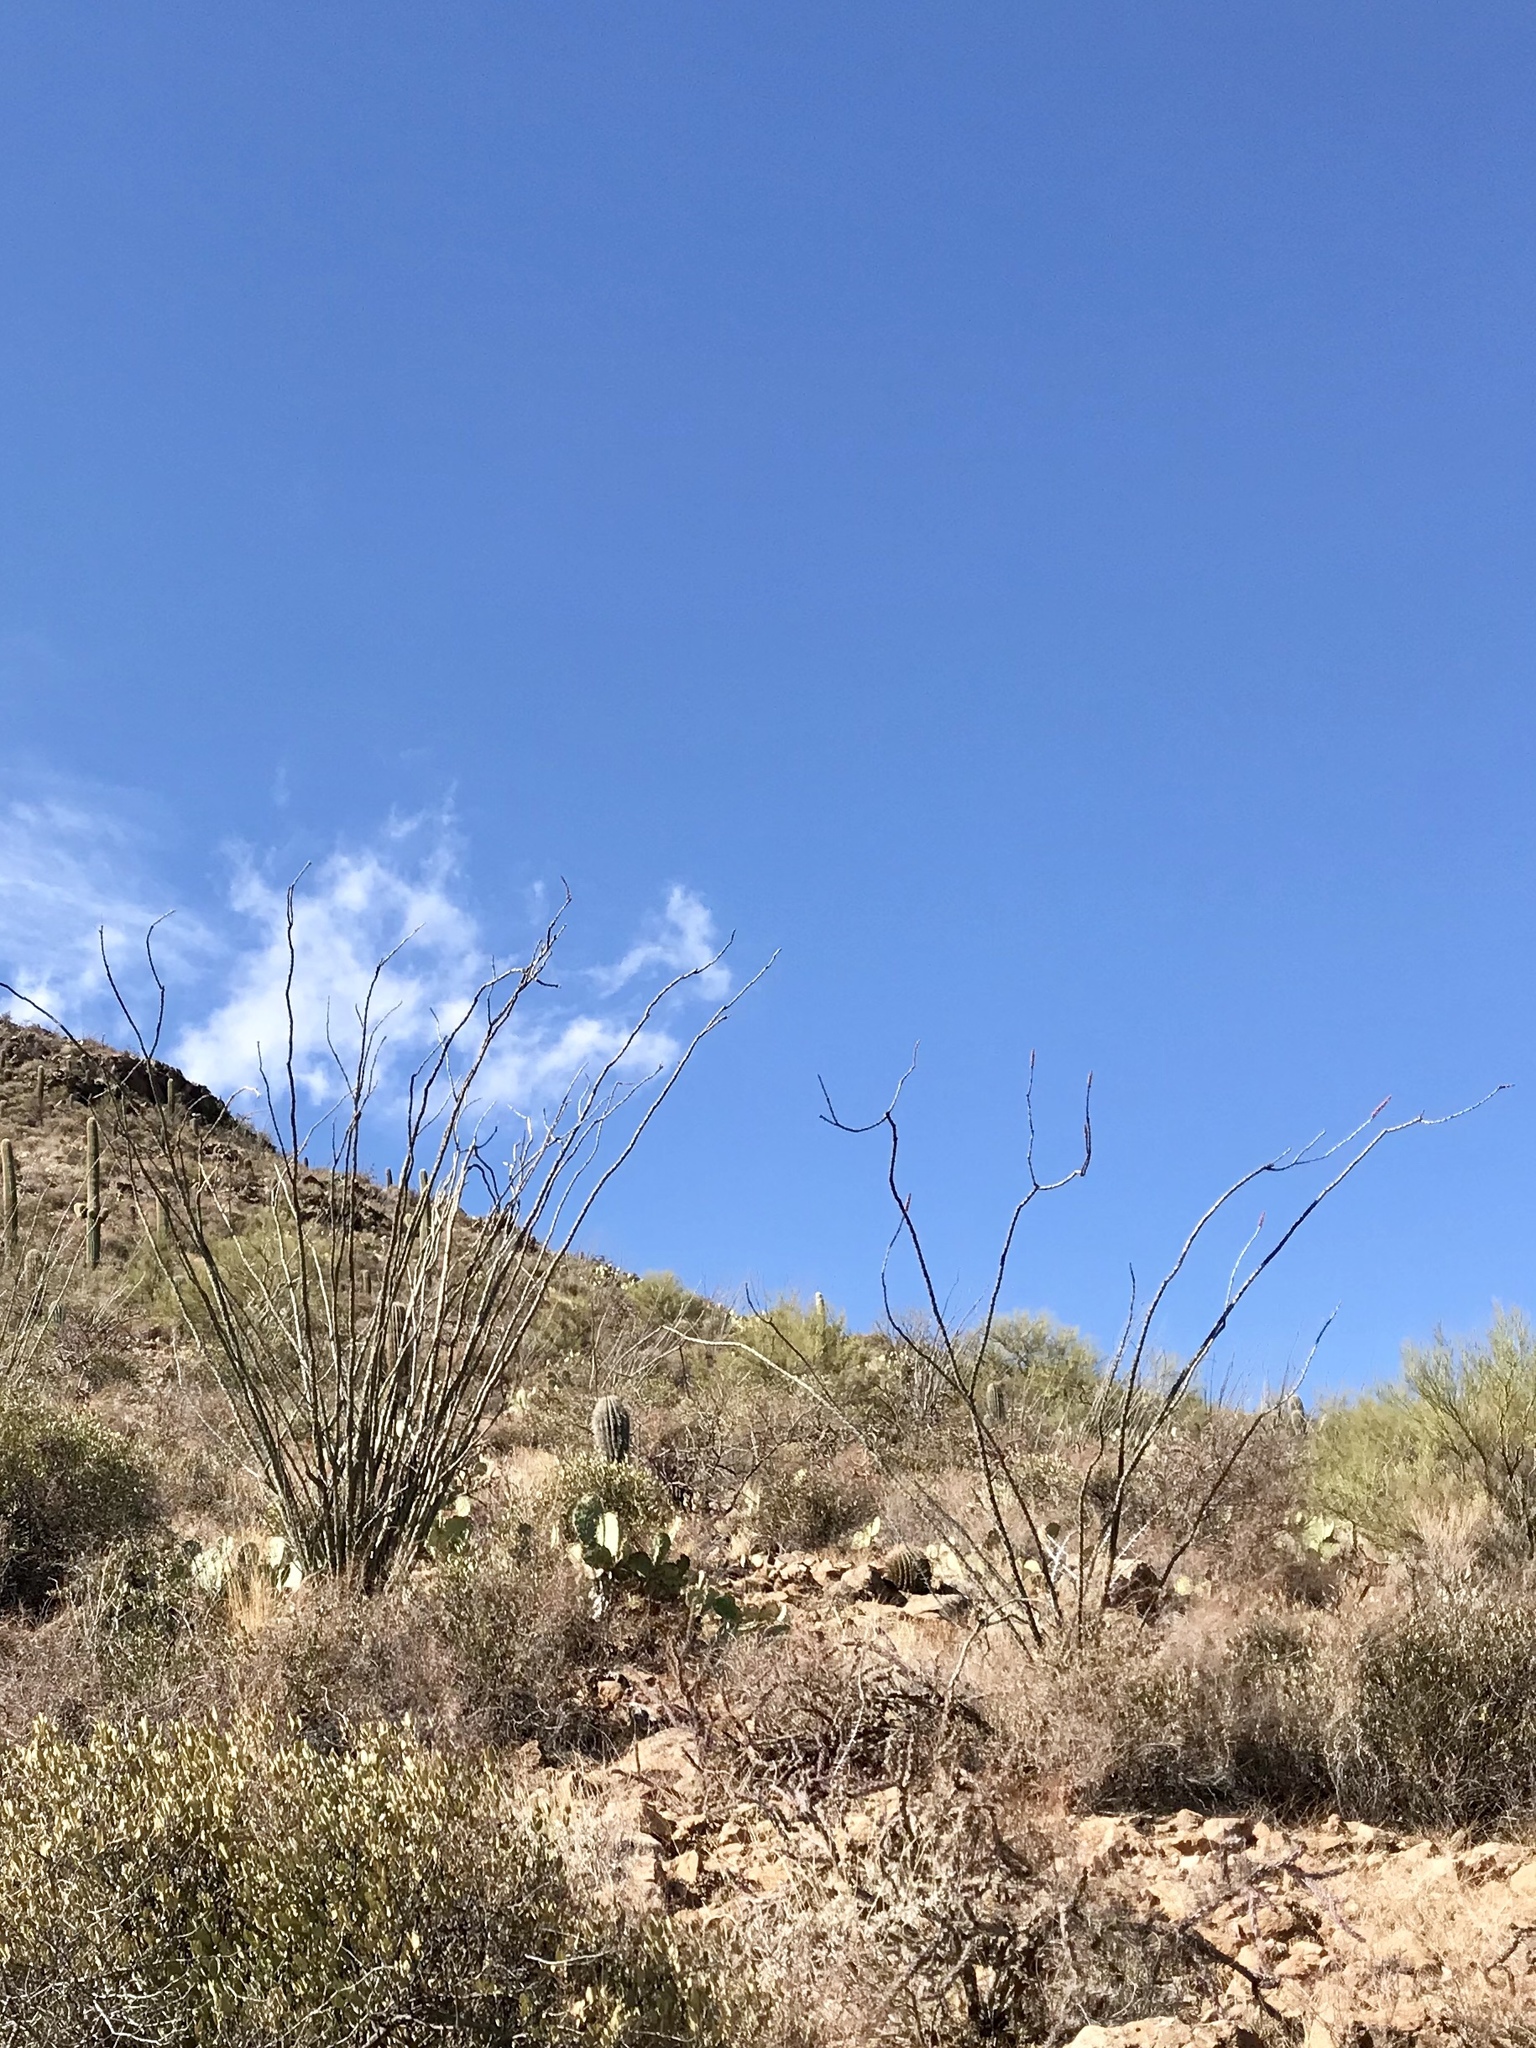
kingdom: Plantae
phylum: Tracheophyta
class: Magnoliopsida
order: Ericales
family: Fouquieriaceae
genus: Fouquieria
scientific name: Fouquieria splendens
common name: Vine-cactus
